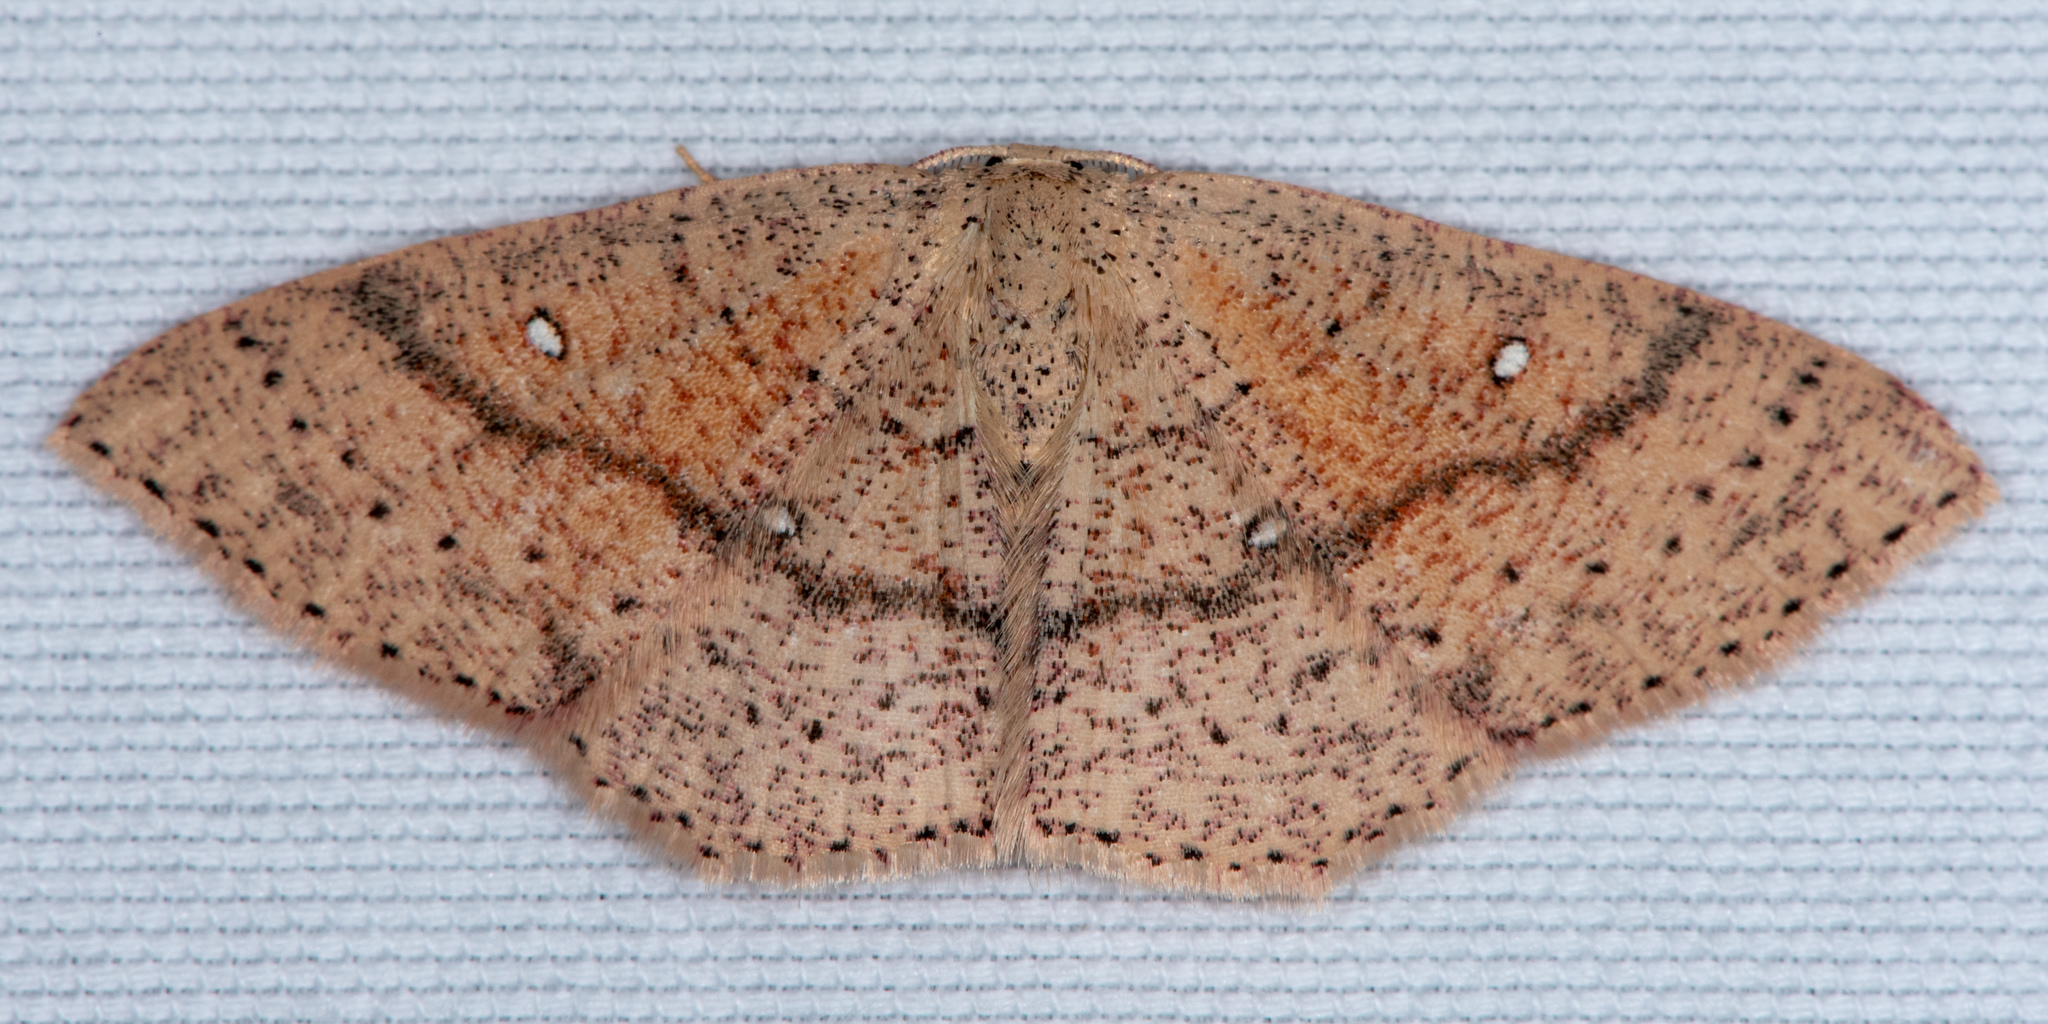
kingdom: Animalia
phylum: Arthropoda
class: Insecta
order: Lepidoptera
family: Geometridae
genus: Cyclophora
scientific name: Cyclophora dataria
